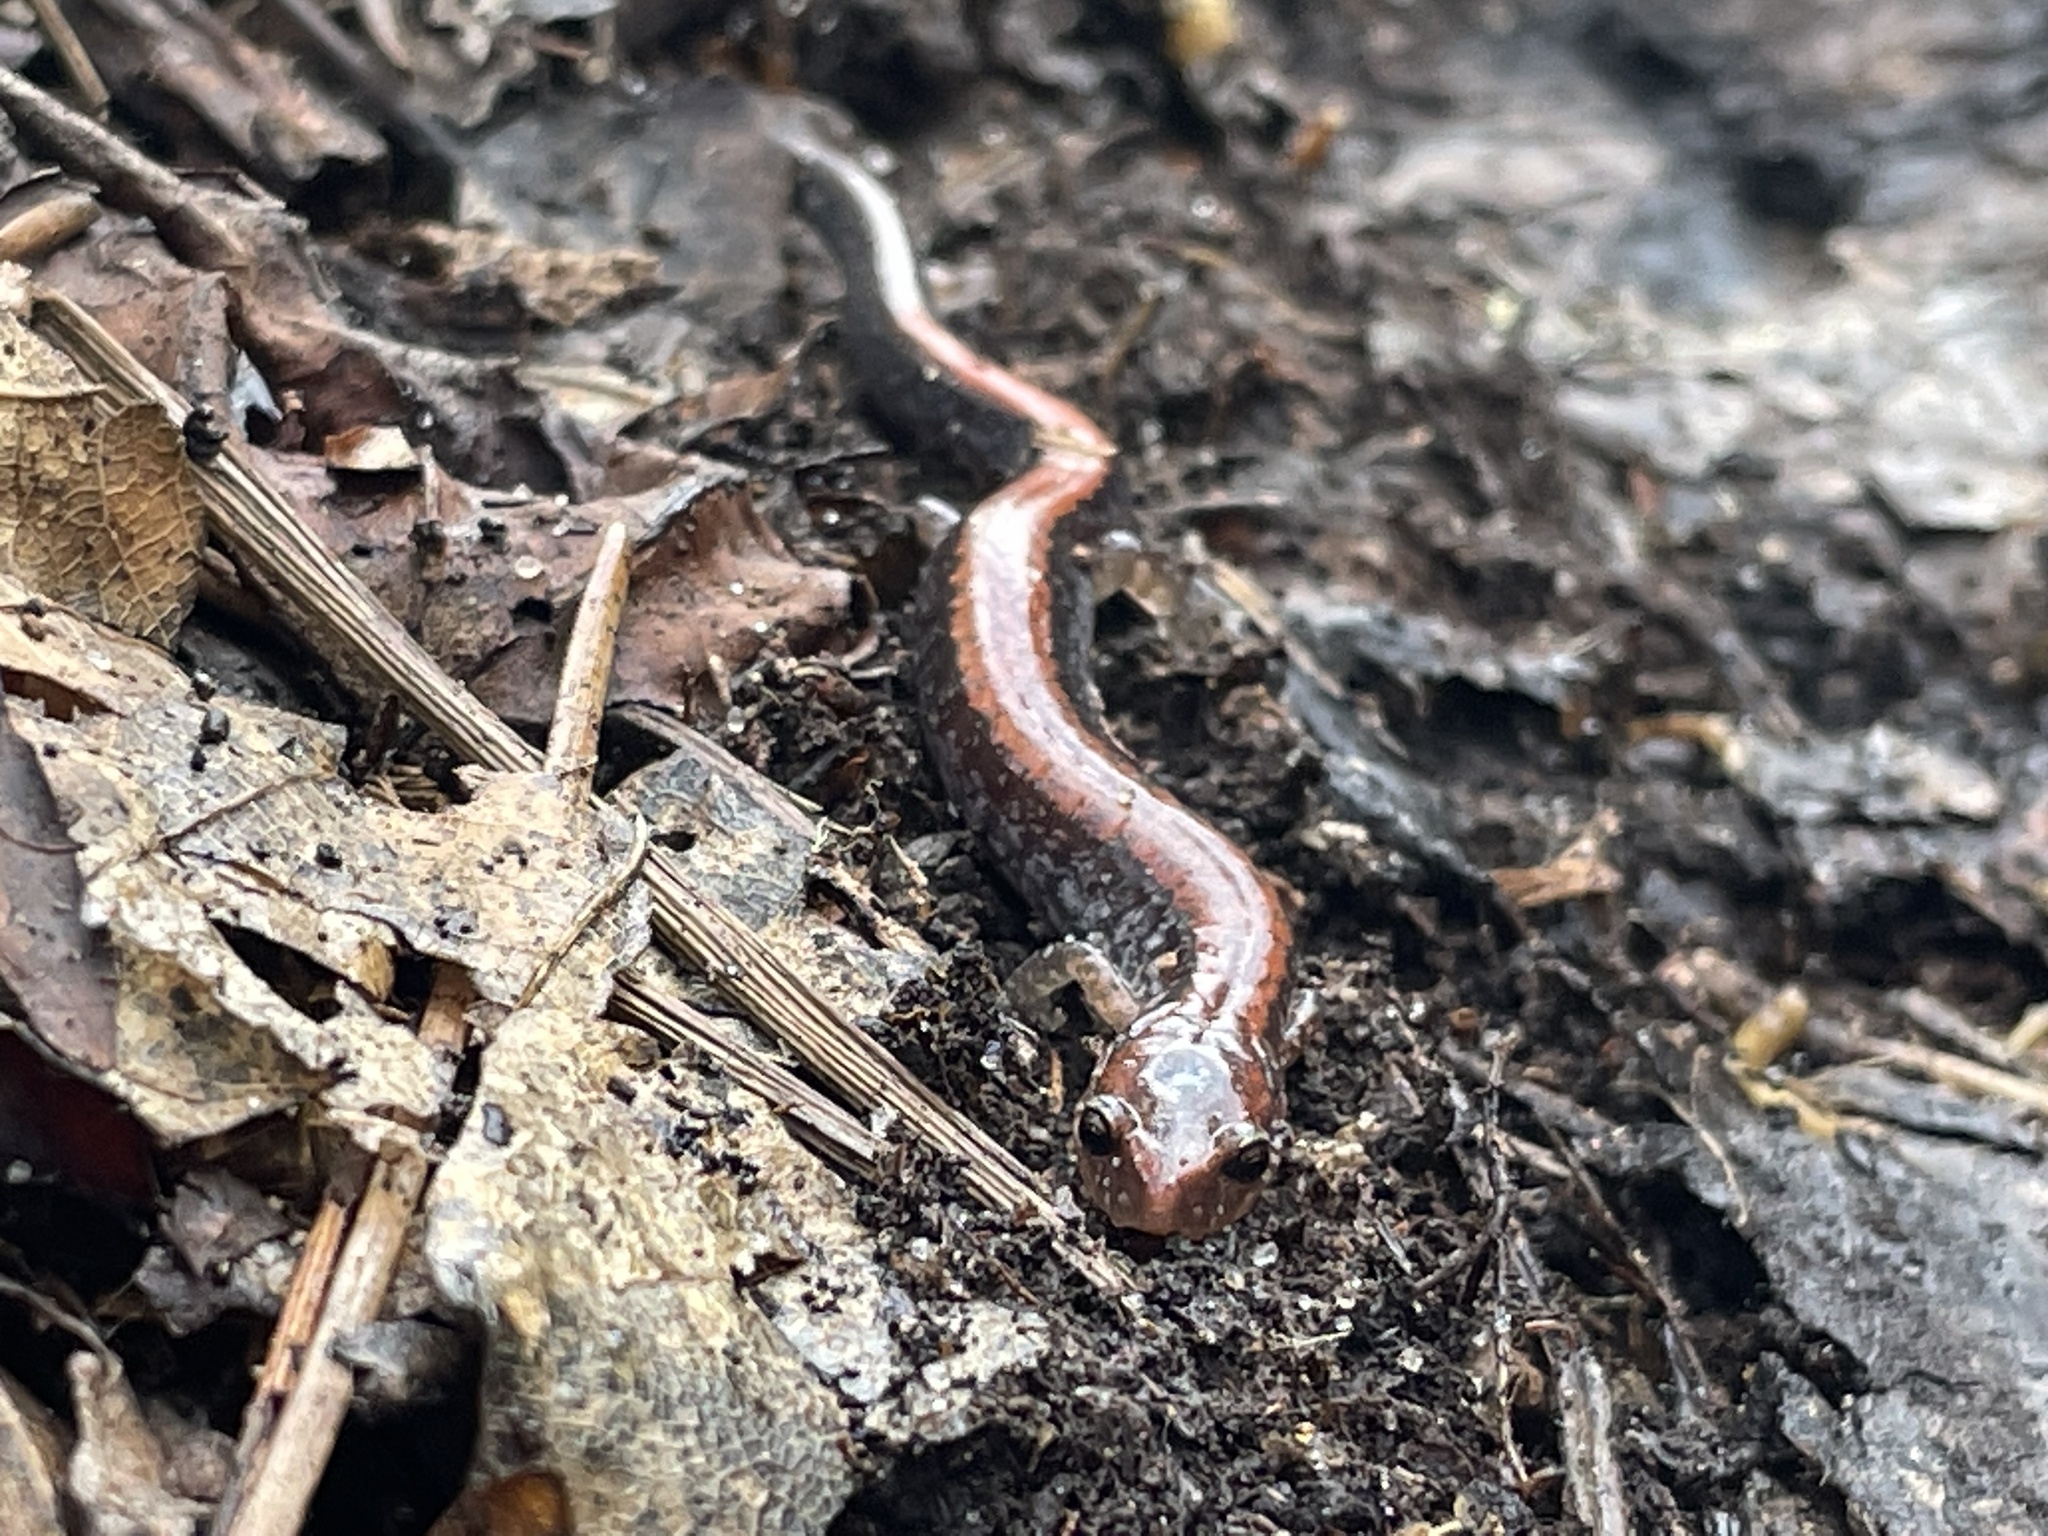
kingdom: Animalia
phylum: Chordata
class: Amphibia
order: Caudata
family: Plethodontidae
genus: Plethodon
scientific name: Plethodon cinereus
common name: Redback salamander
